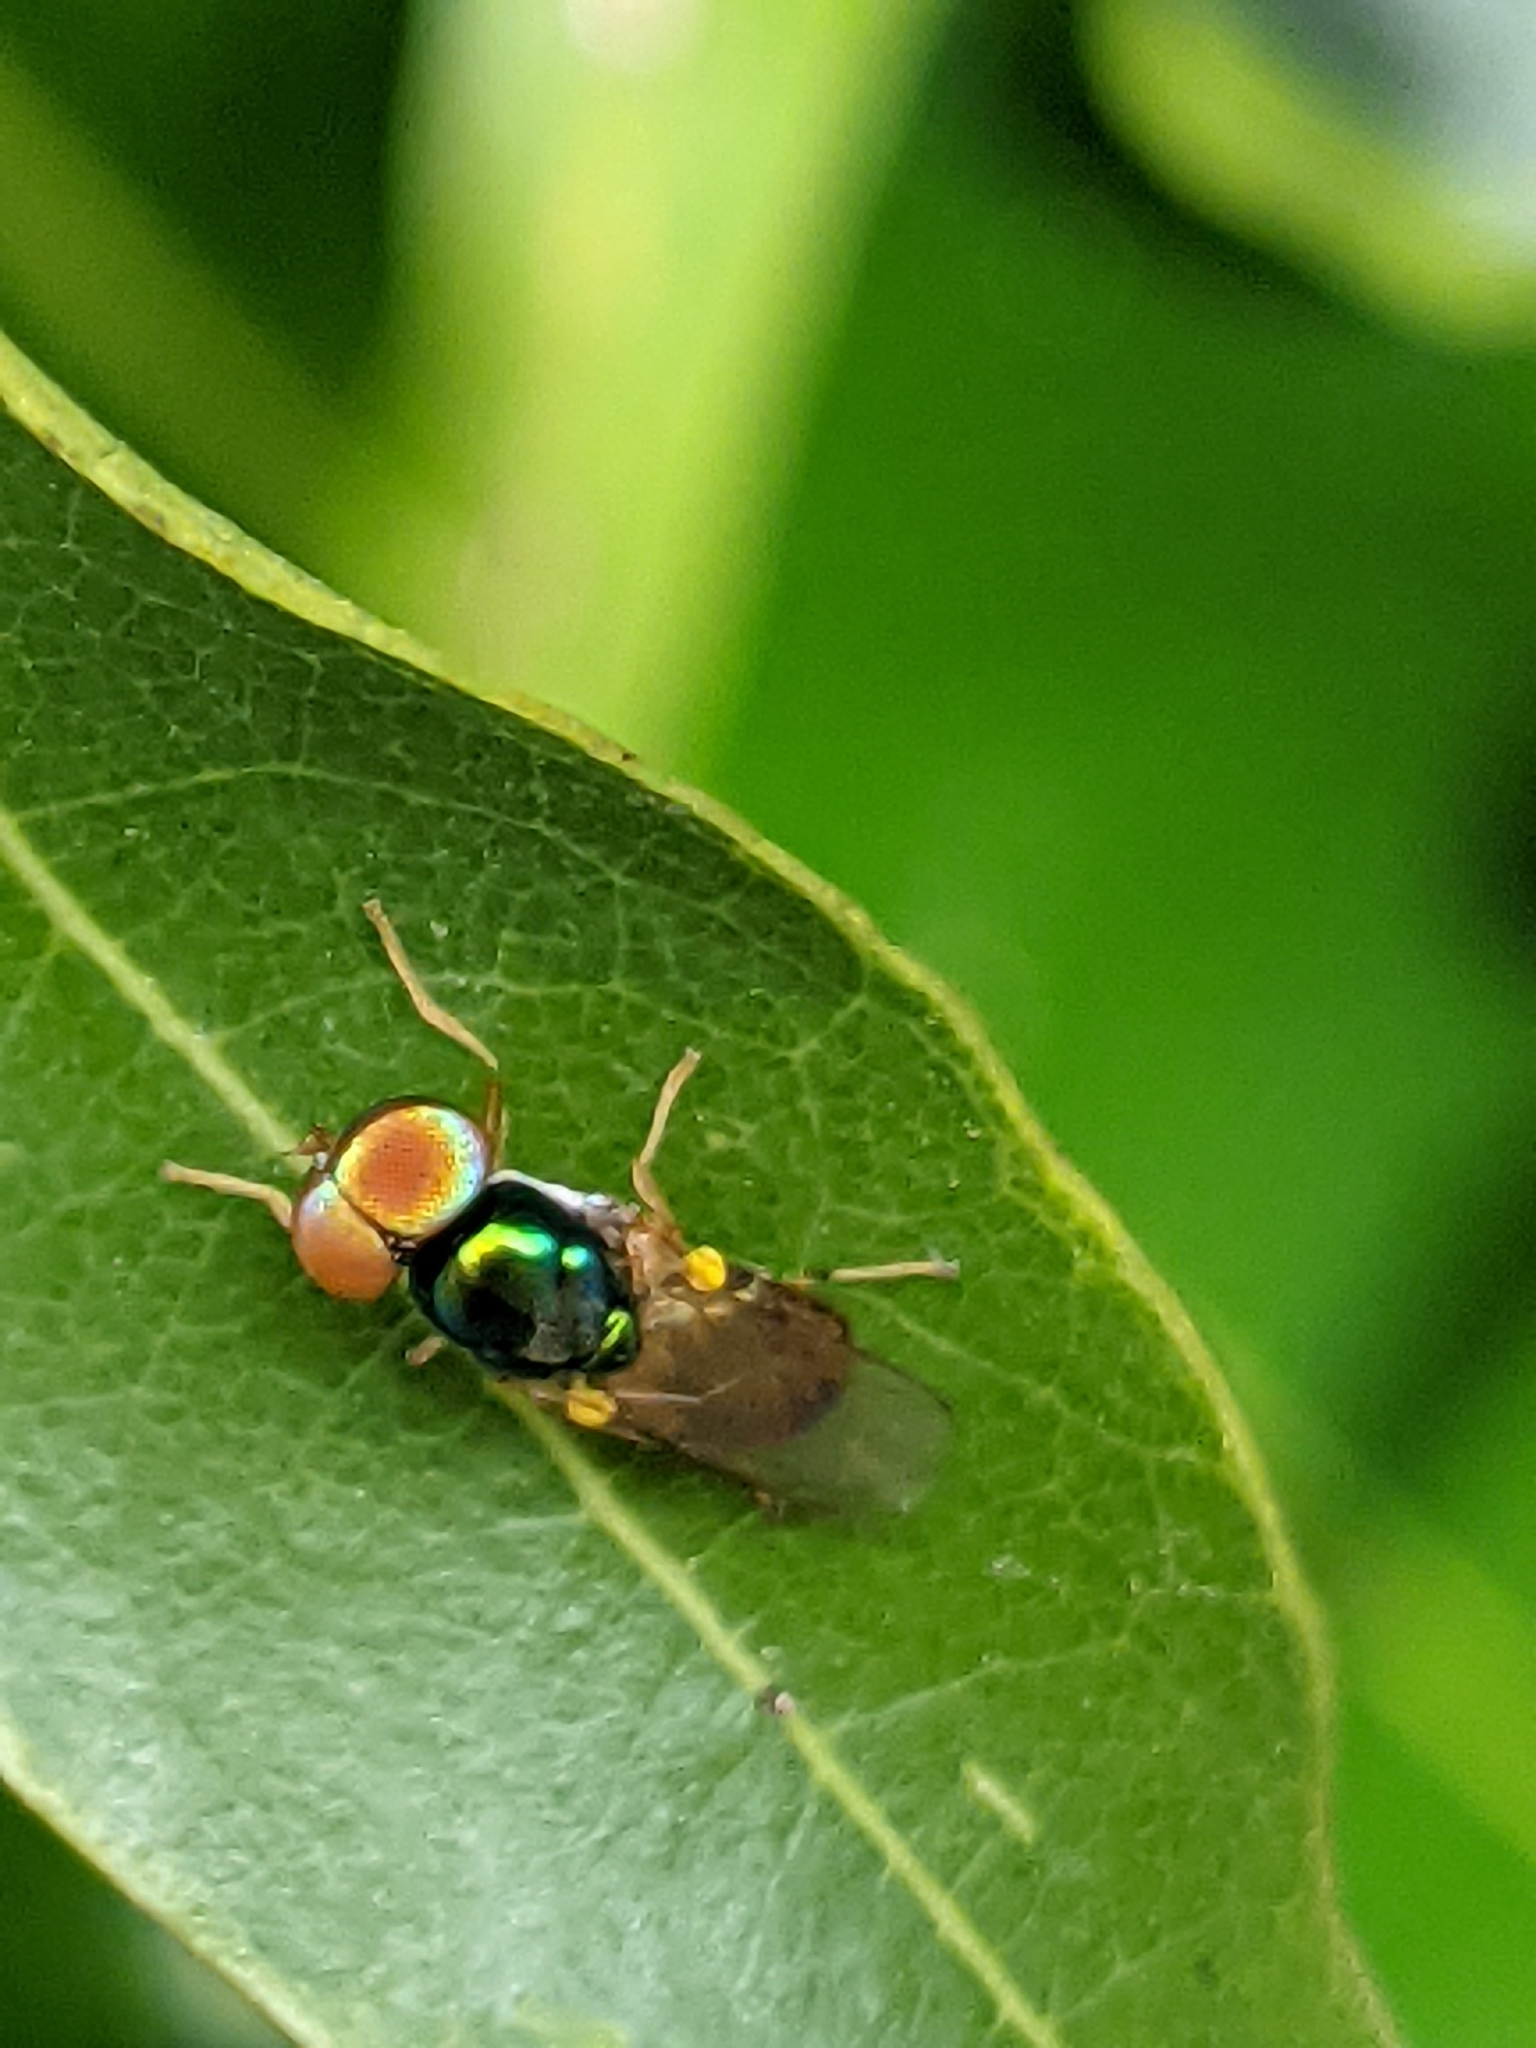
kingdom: Animalia
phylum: Arthropoda
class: Insecta
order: Diptera
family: Stratiomyidae
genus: Microchrysa
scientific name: Microchrysa flaviventris
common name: Soldier fly
